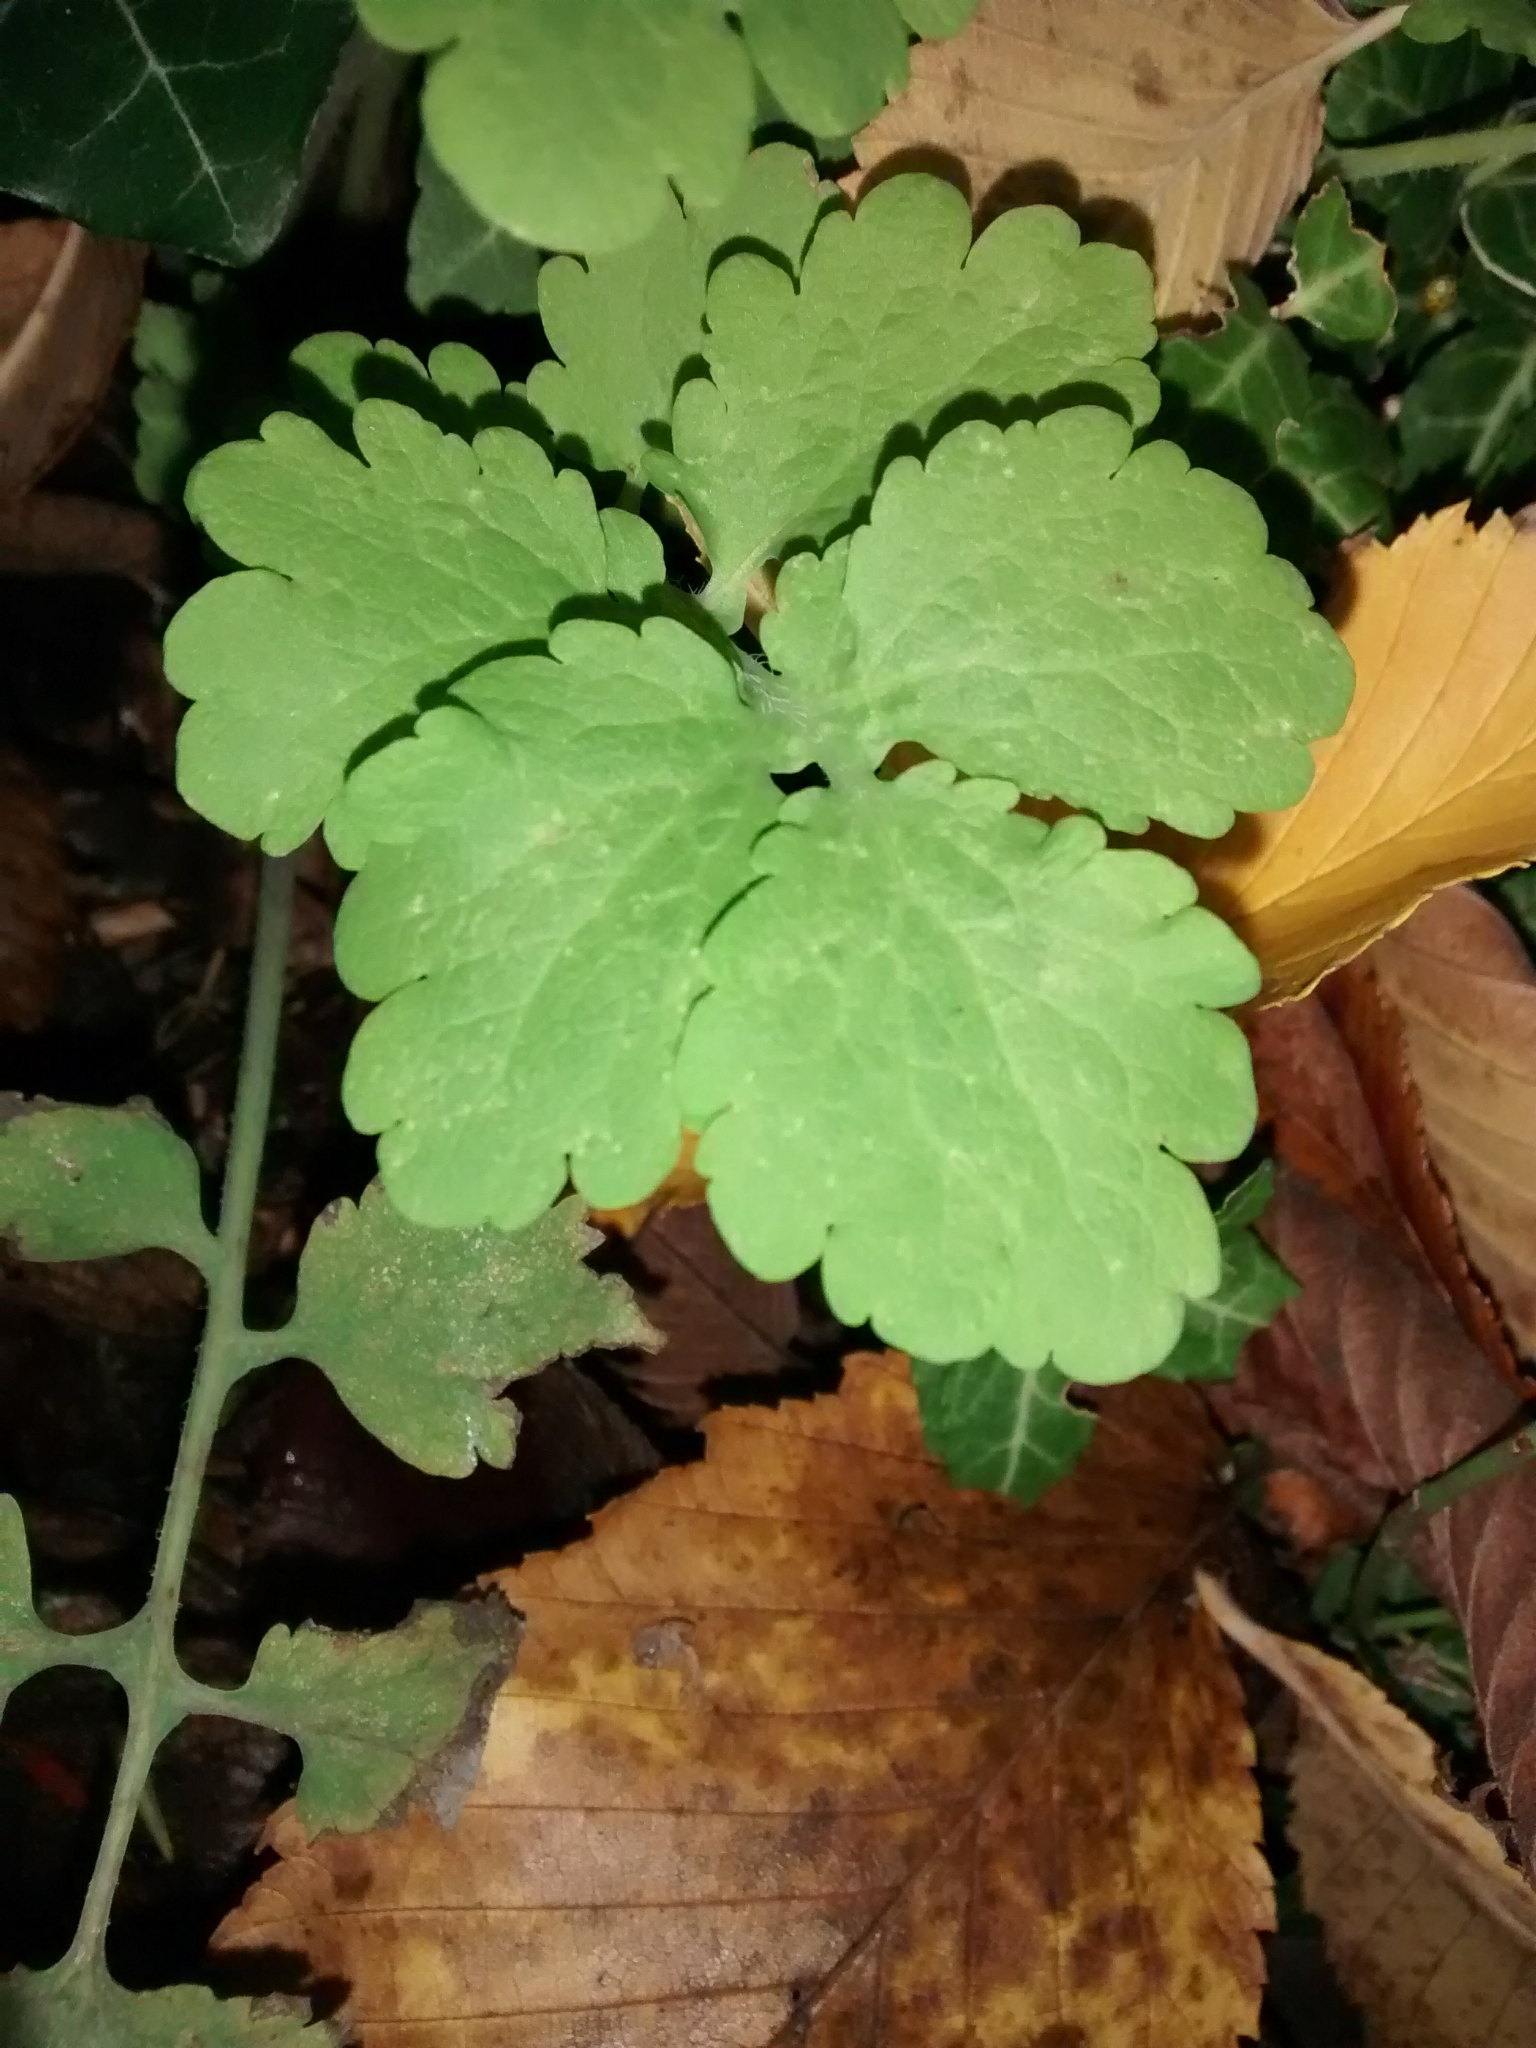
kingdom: Plantae
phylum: Tracheophyta
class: Magnoliopsida
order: Ranunculales
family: Papaveraceae
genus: Chelidonium
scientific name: Chelidonium majus
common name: Greater celandine
